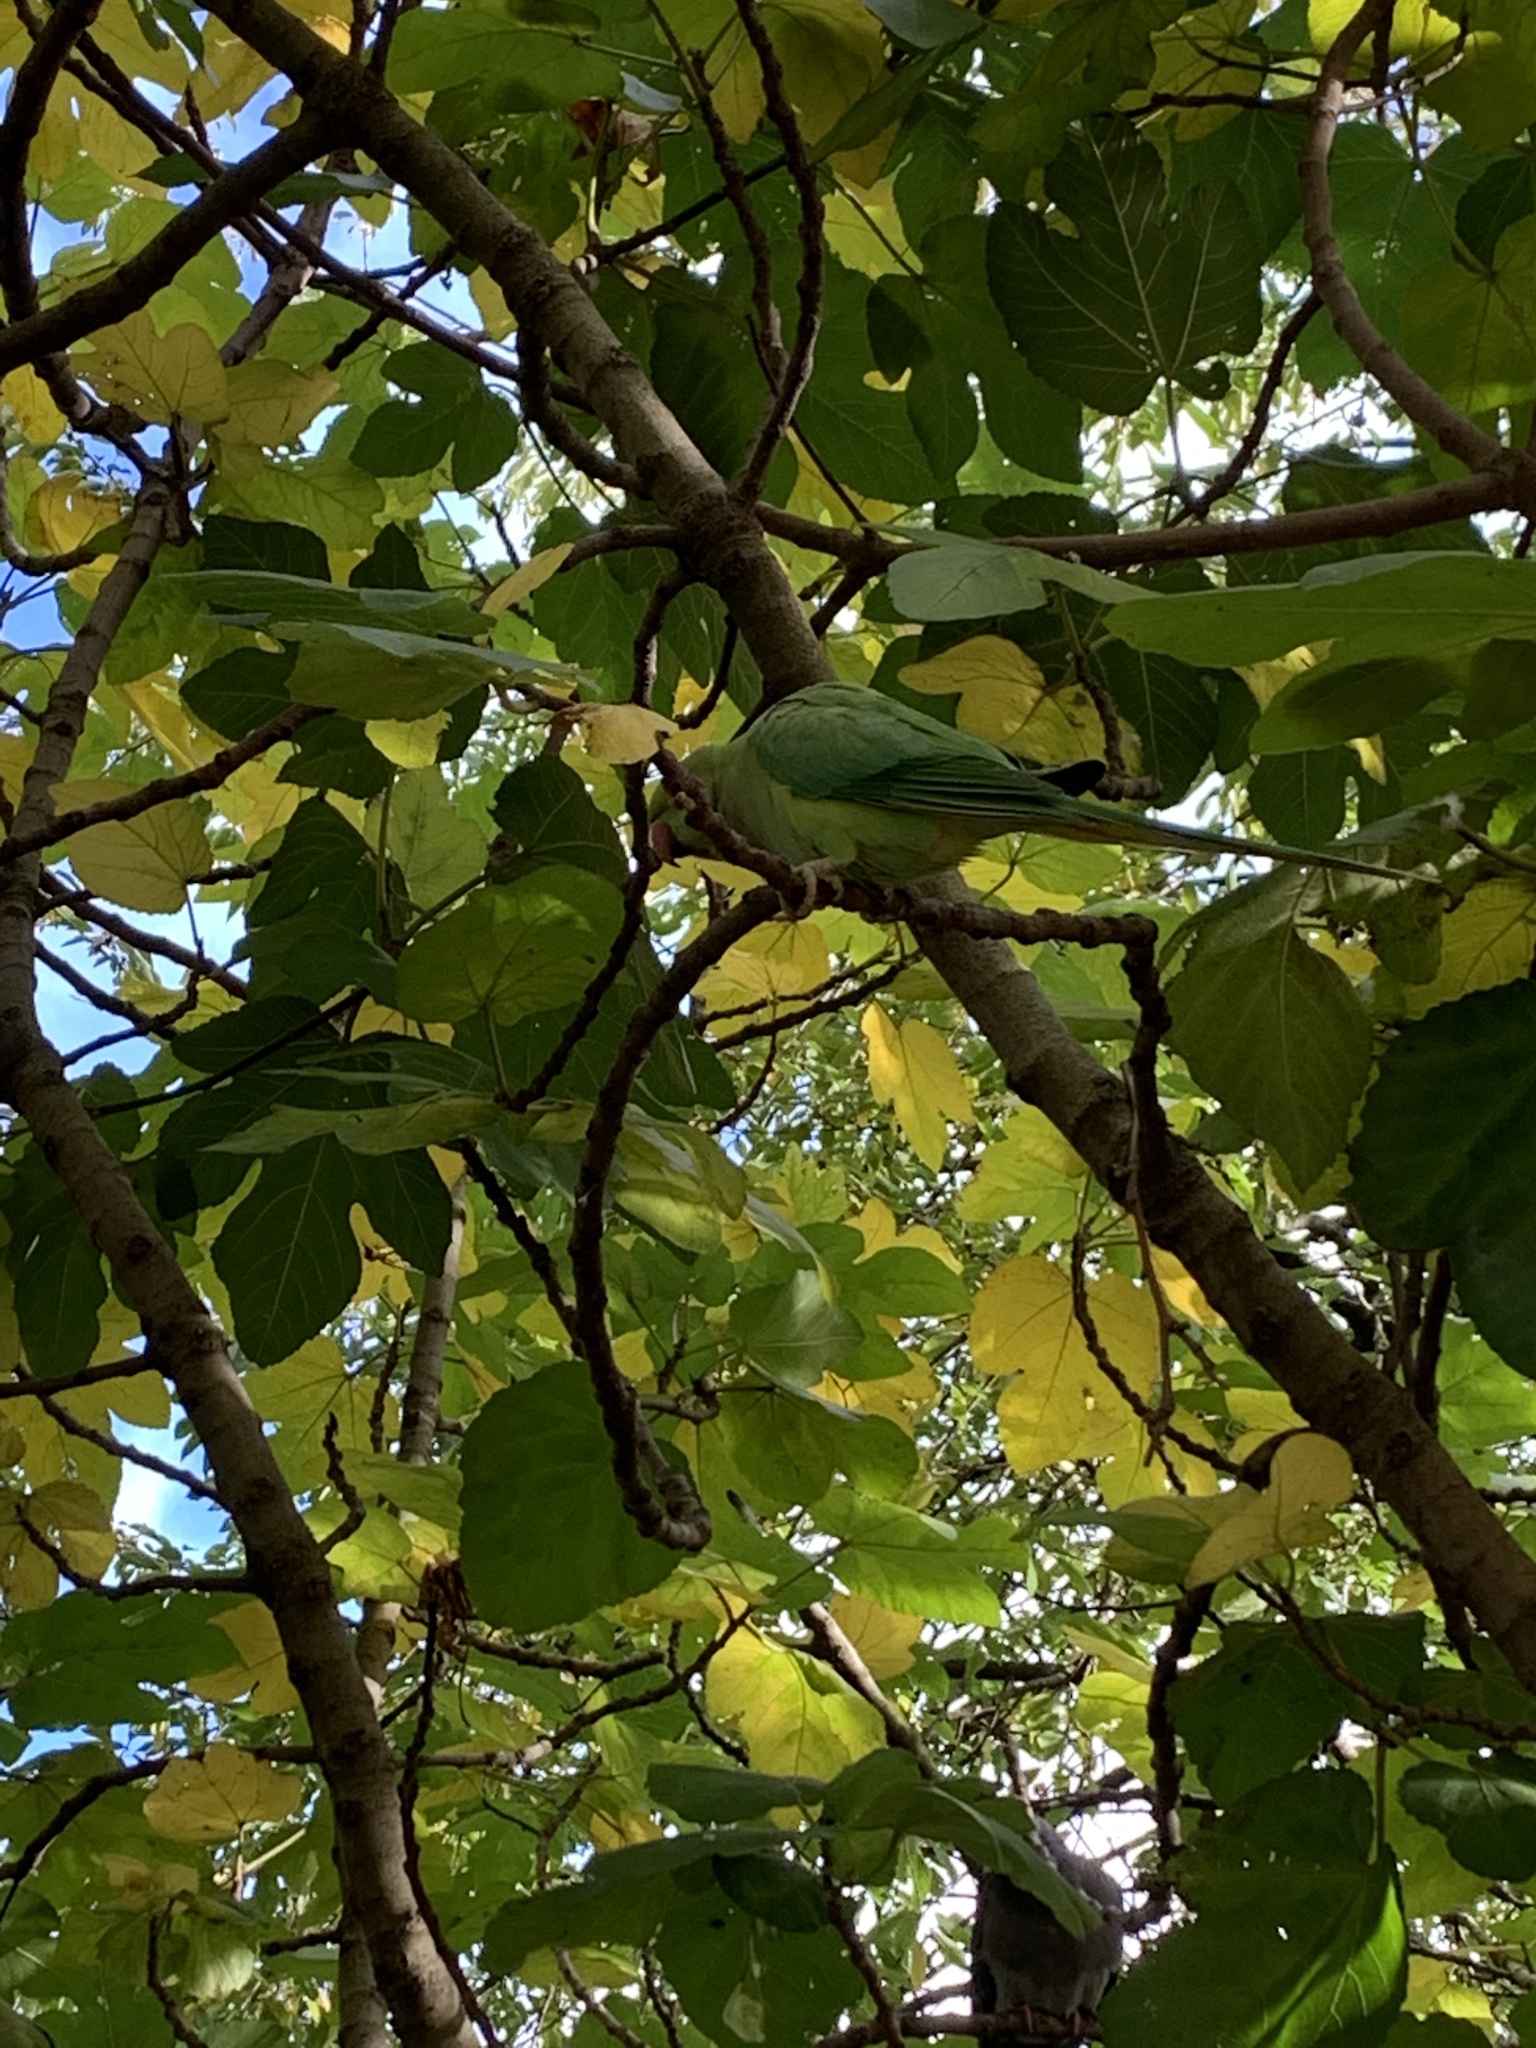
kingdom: Animalia
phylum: Chordata
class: Aves
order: Psittaciformes
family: Psittacidae
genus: Psittacula
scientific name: Psittacula krameri
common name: Rose-ringed parakeet
